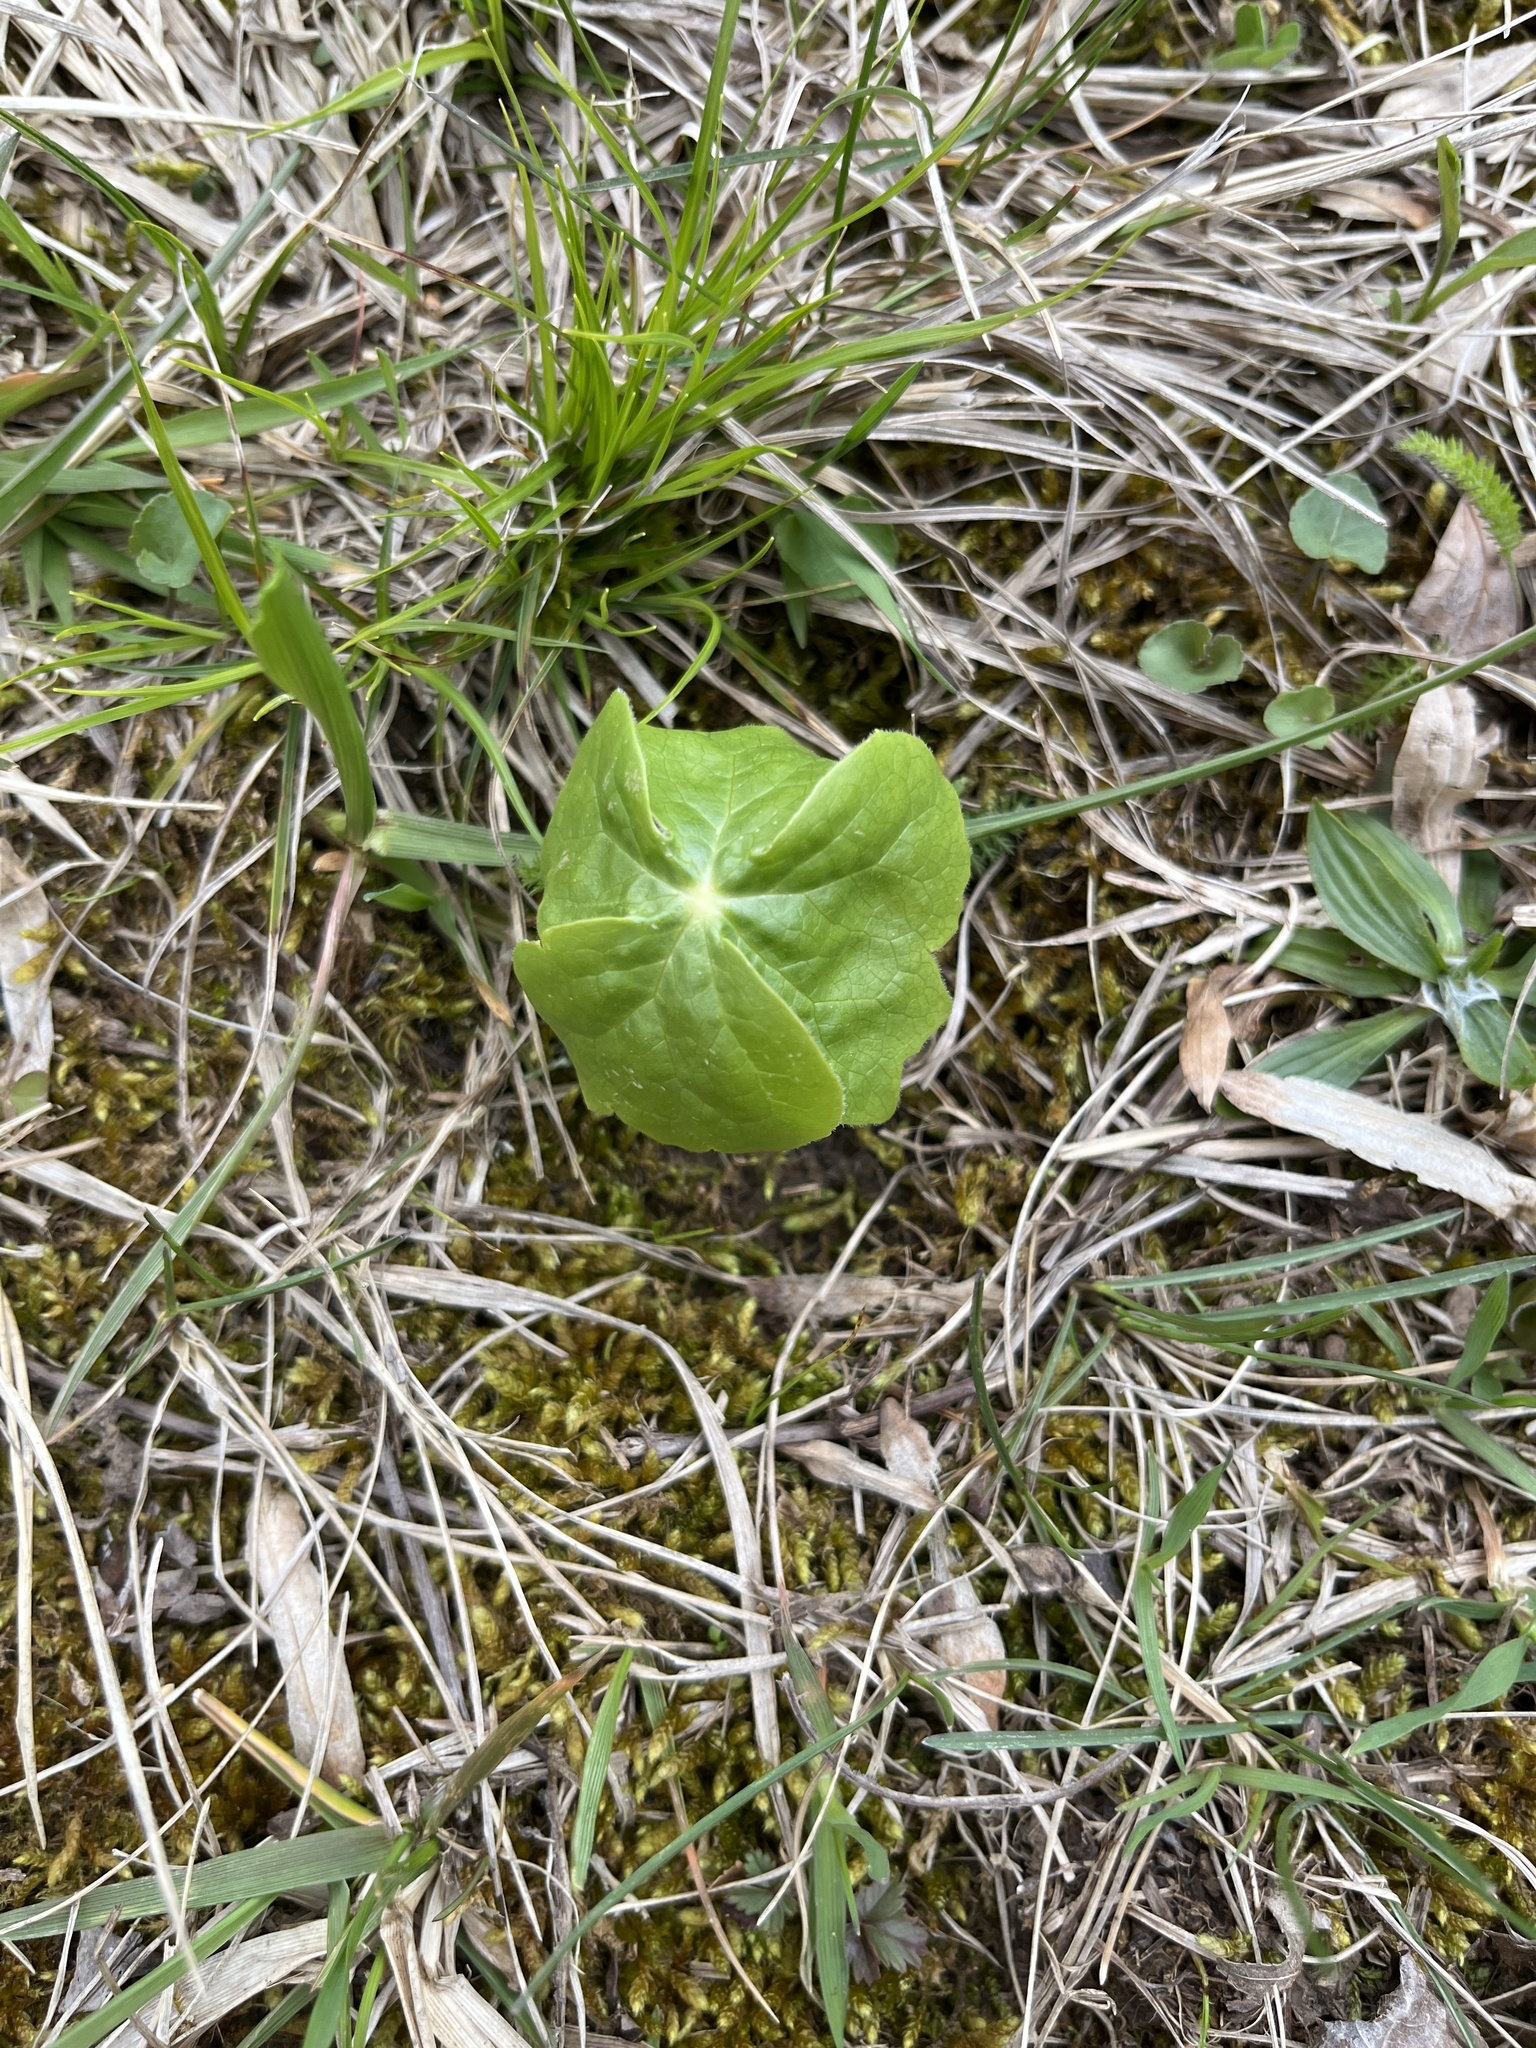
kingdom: Plantae
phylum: Tracheophyta
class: Magnoliopsida
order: Ranunculales
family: Berberidaceae
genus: Podophyllum
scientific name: Podophyllum peltatum
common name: Wild mandrake
